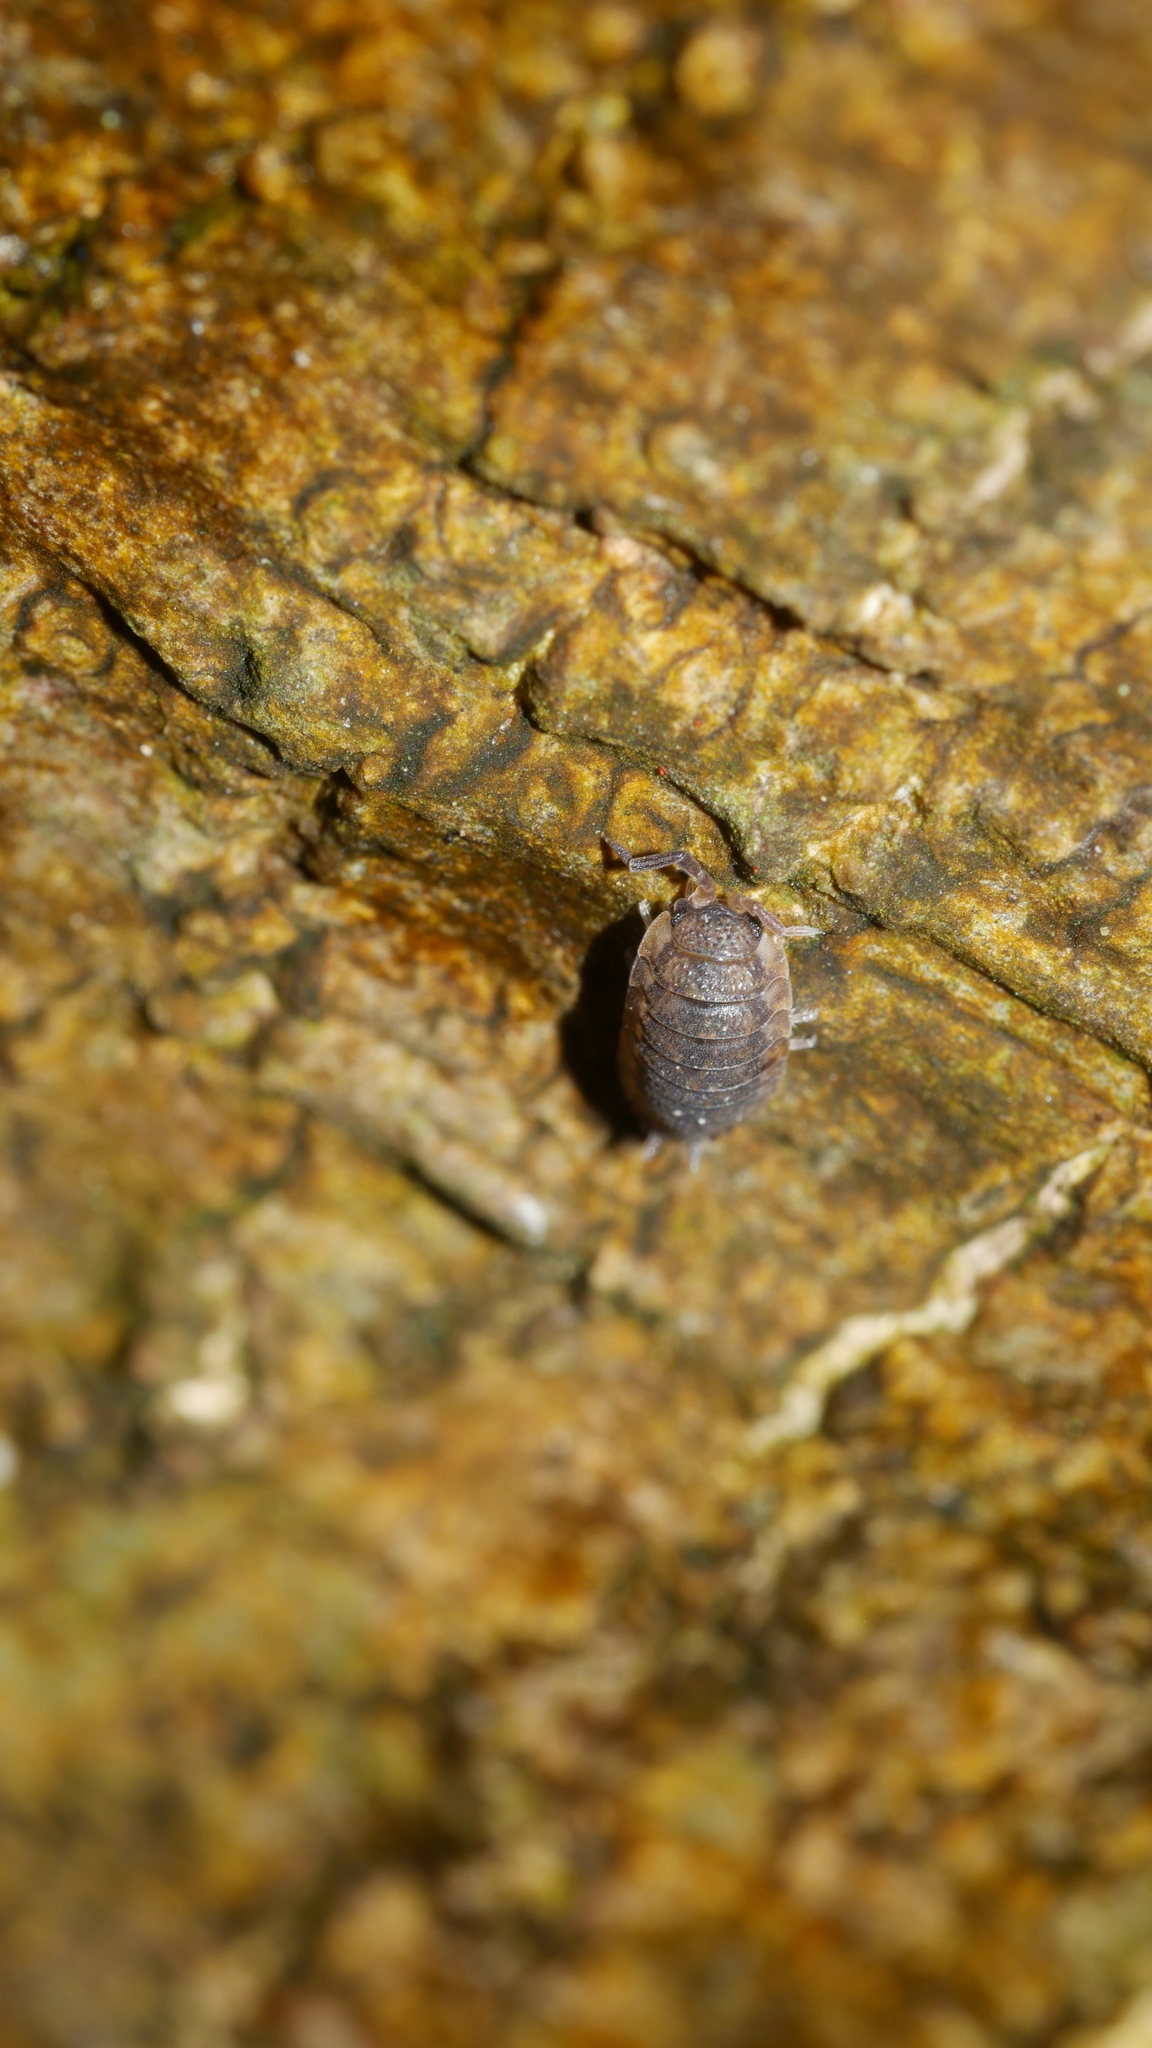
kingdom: Animalia
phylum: Arthropoda
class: Malacostraca
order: Isopoda
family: Porcellionidae
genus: Porcellio
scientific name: Porcellio scaber
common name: Common rough woodlouse
